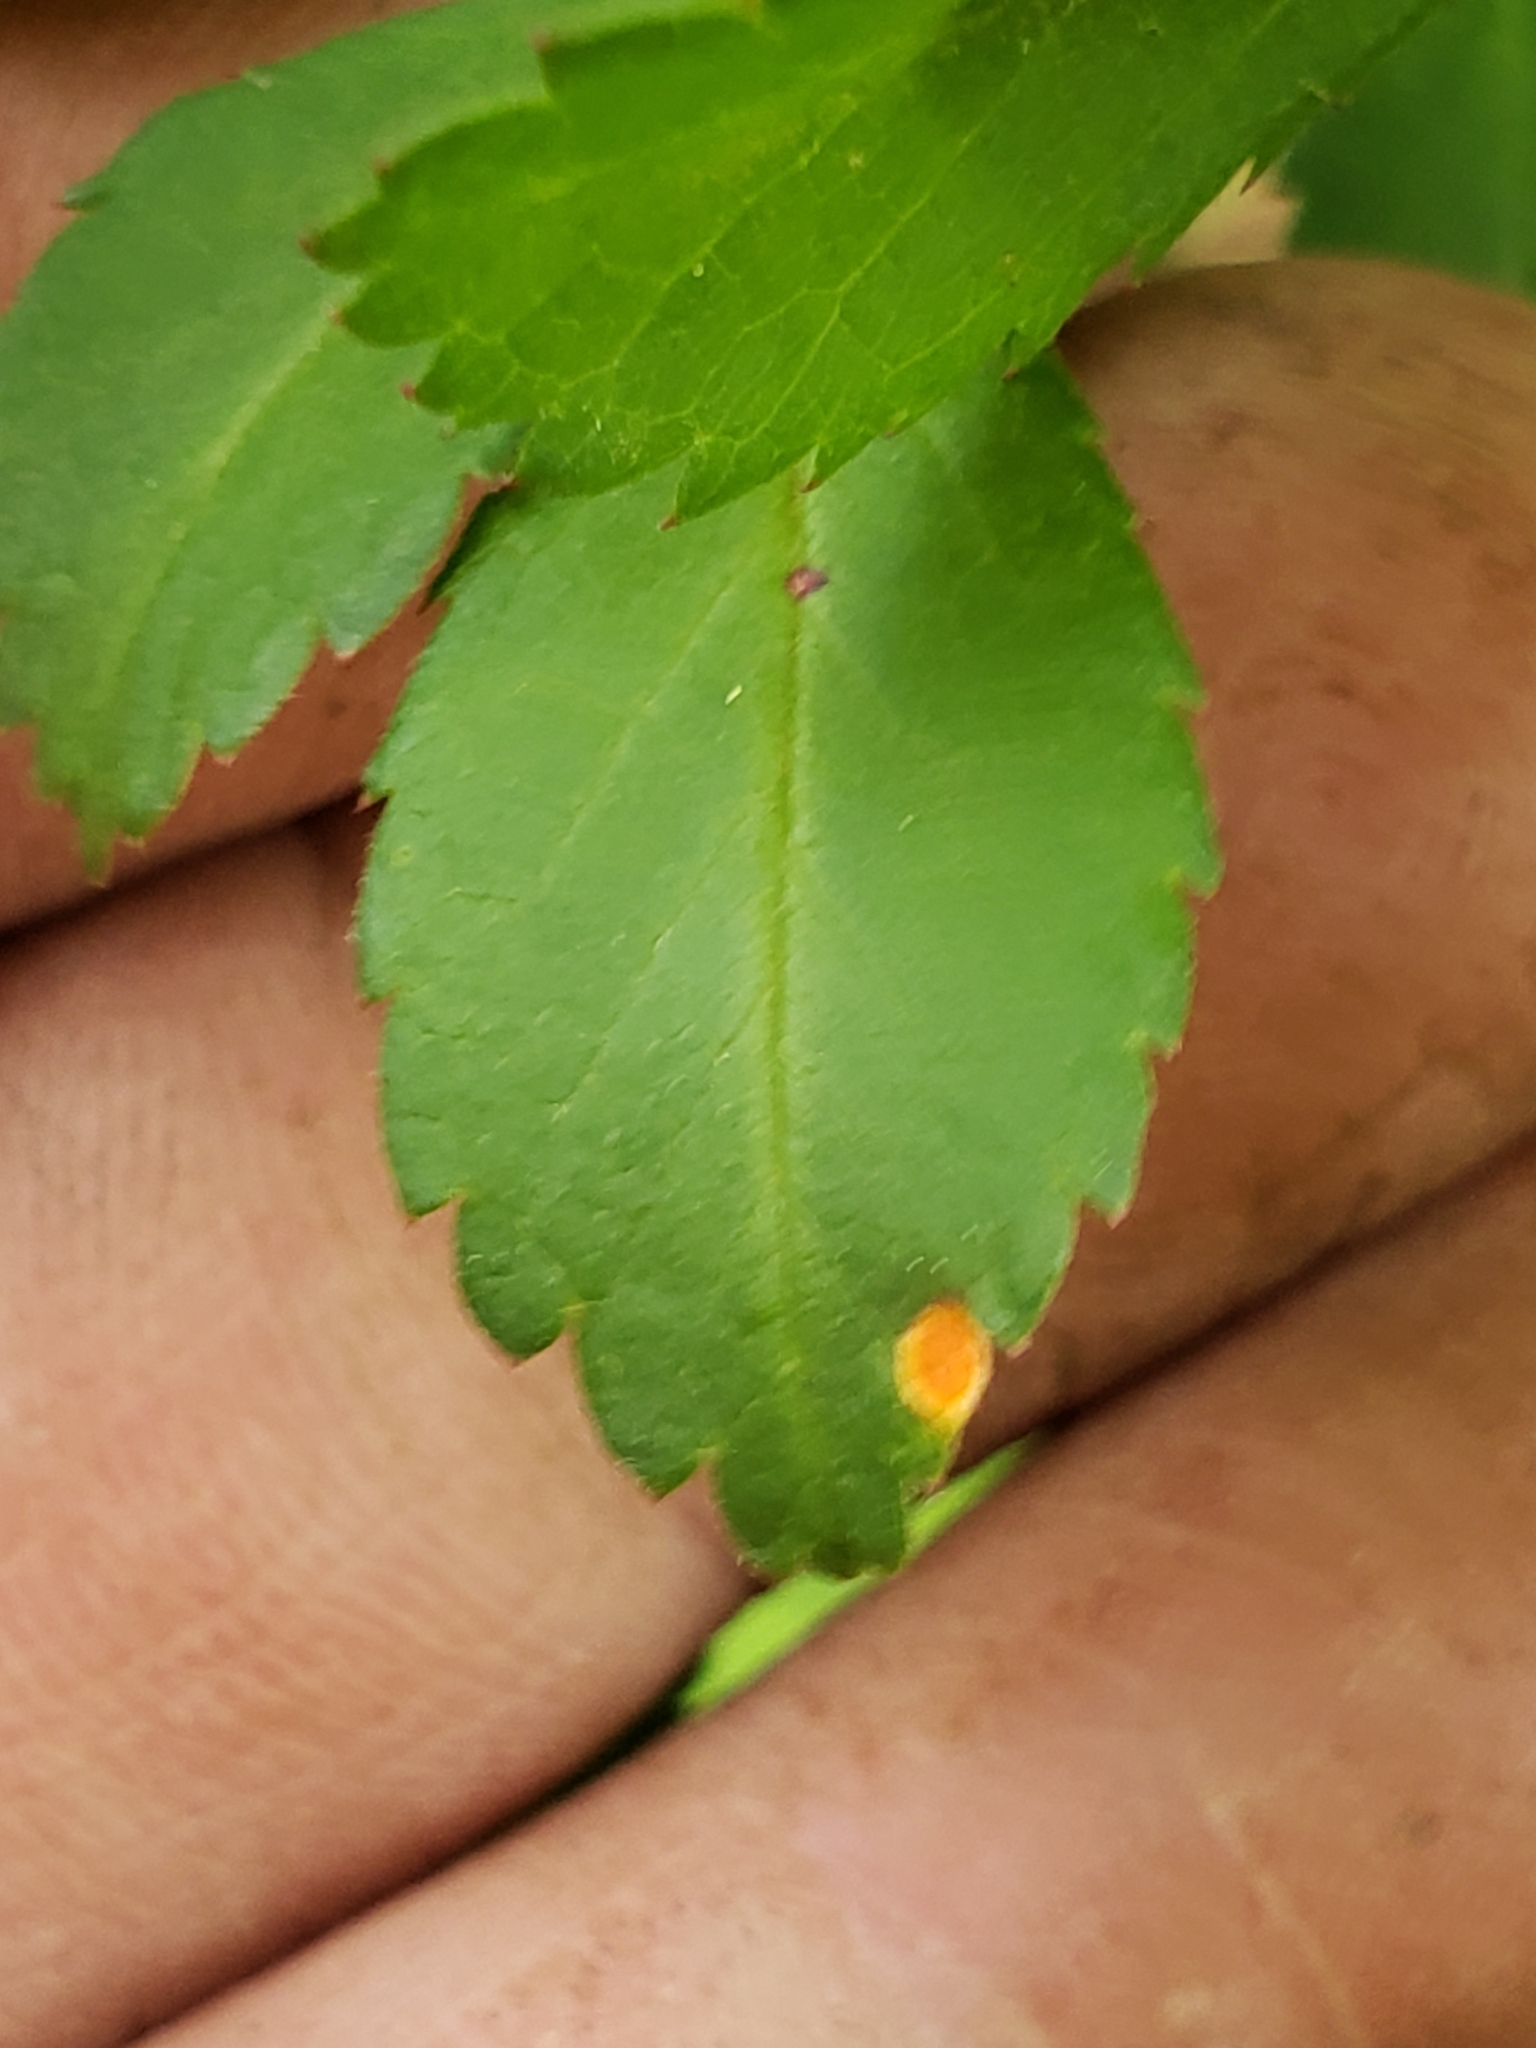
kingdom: Fungi
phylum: Basidiomycota
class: Pucciniomycetes
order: Pucciniales
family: Phragmidiaceae
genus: Phragmidium
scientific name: Phragmidium rosae-multiflorae
